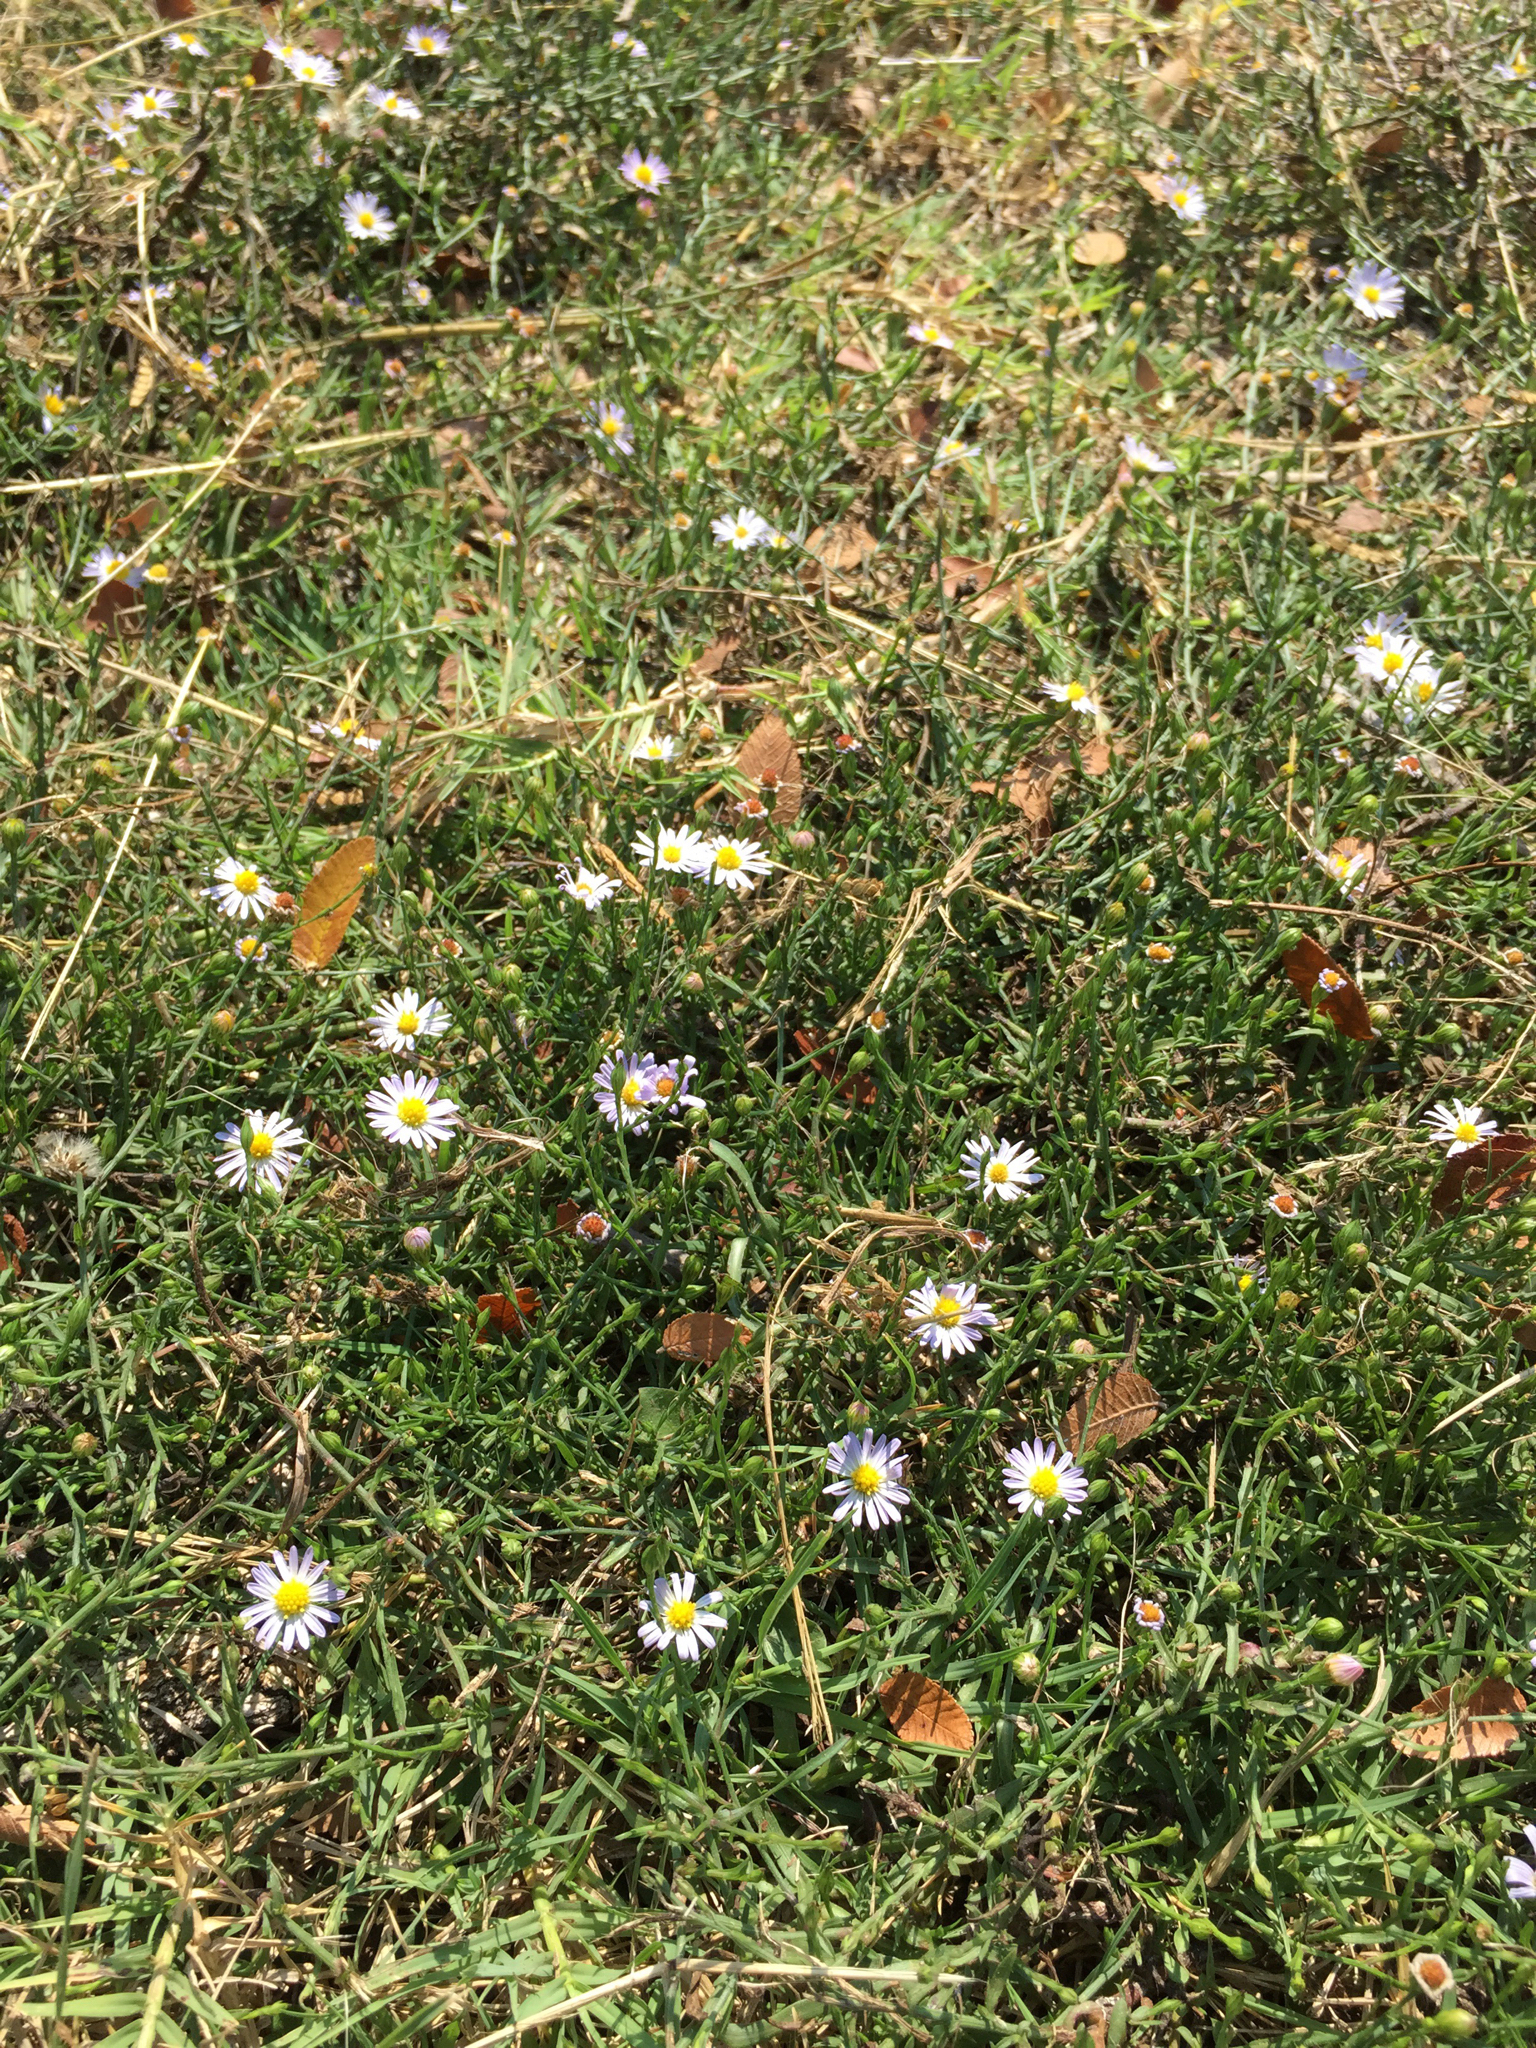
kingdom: Plantae
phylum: Tracheophyta
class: Magnoliopsida
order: Asterales
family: Asteraceae
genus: Symphyotrichum
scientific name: Symphyotrichum divaricatum
